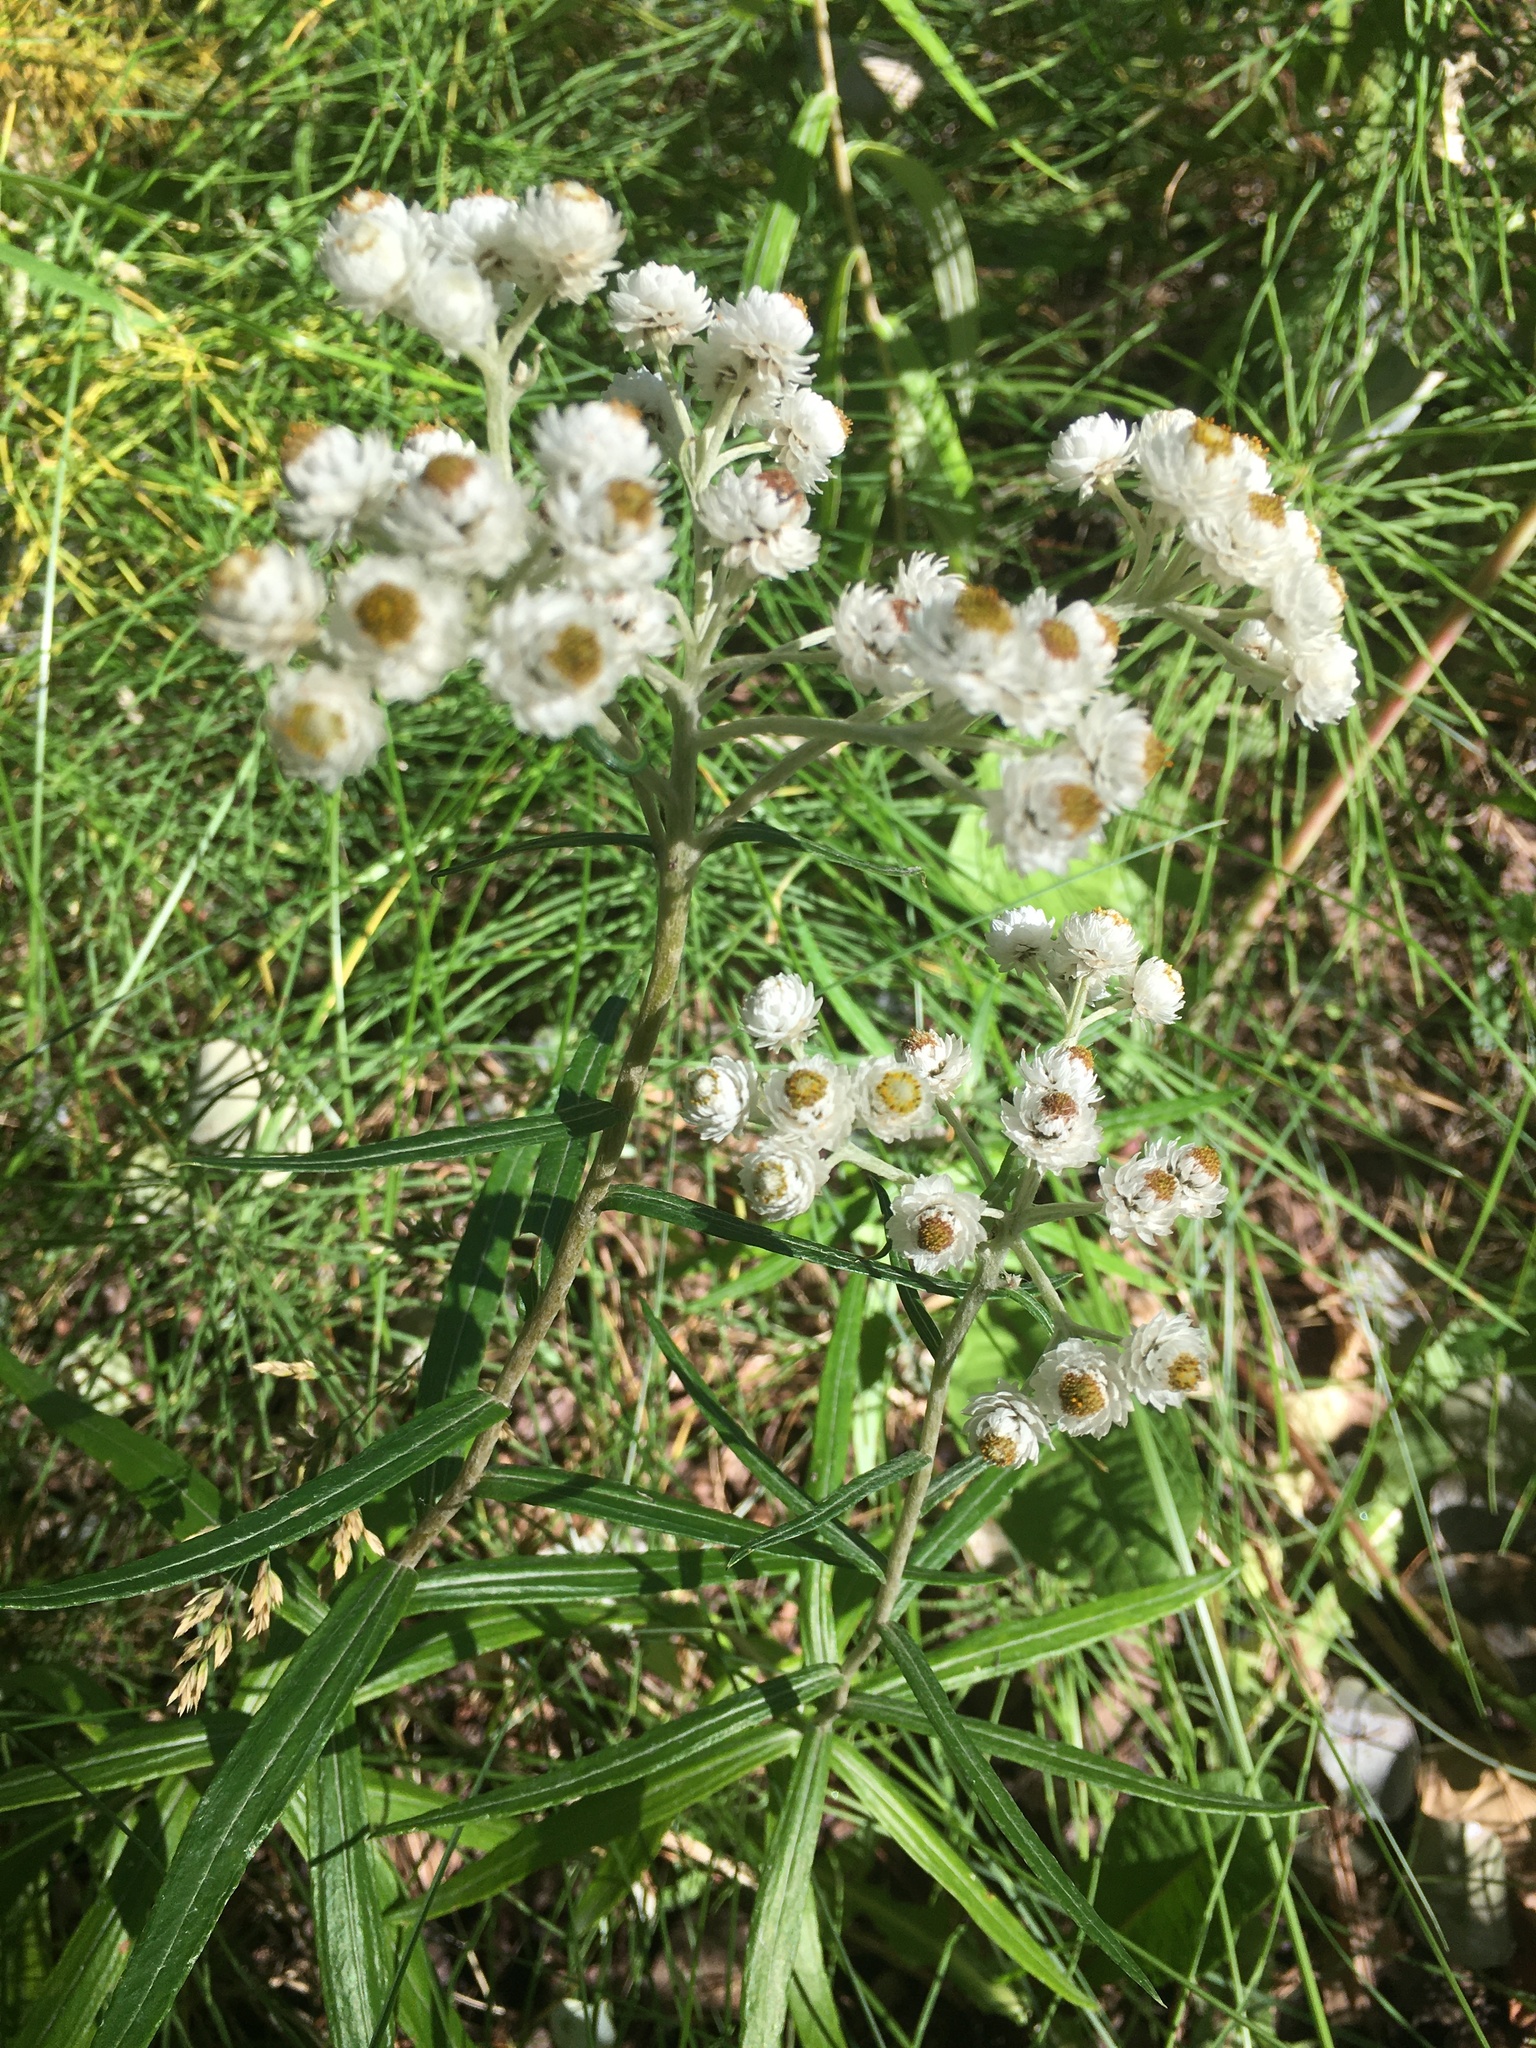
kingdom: Plantae
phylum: Tracheophyta
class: Magnoliopsida
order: Asterales
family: Asteraceae
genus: Anaphalis
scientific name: Anaphalis margaritacea
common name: Pearly everlasting
